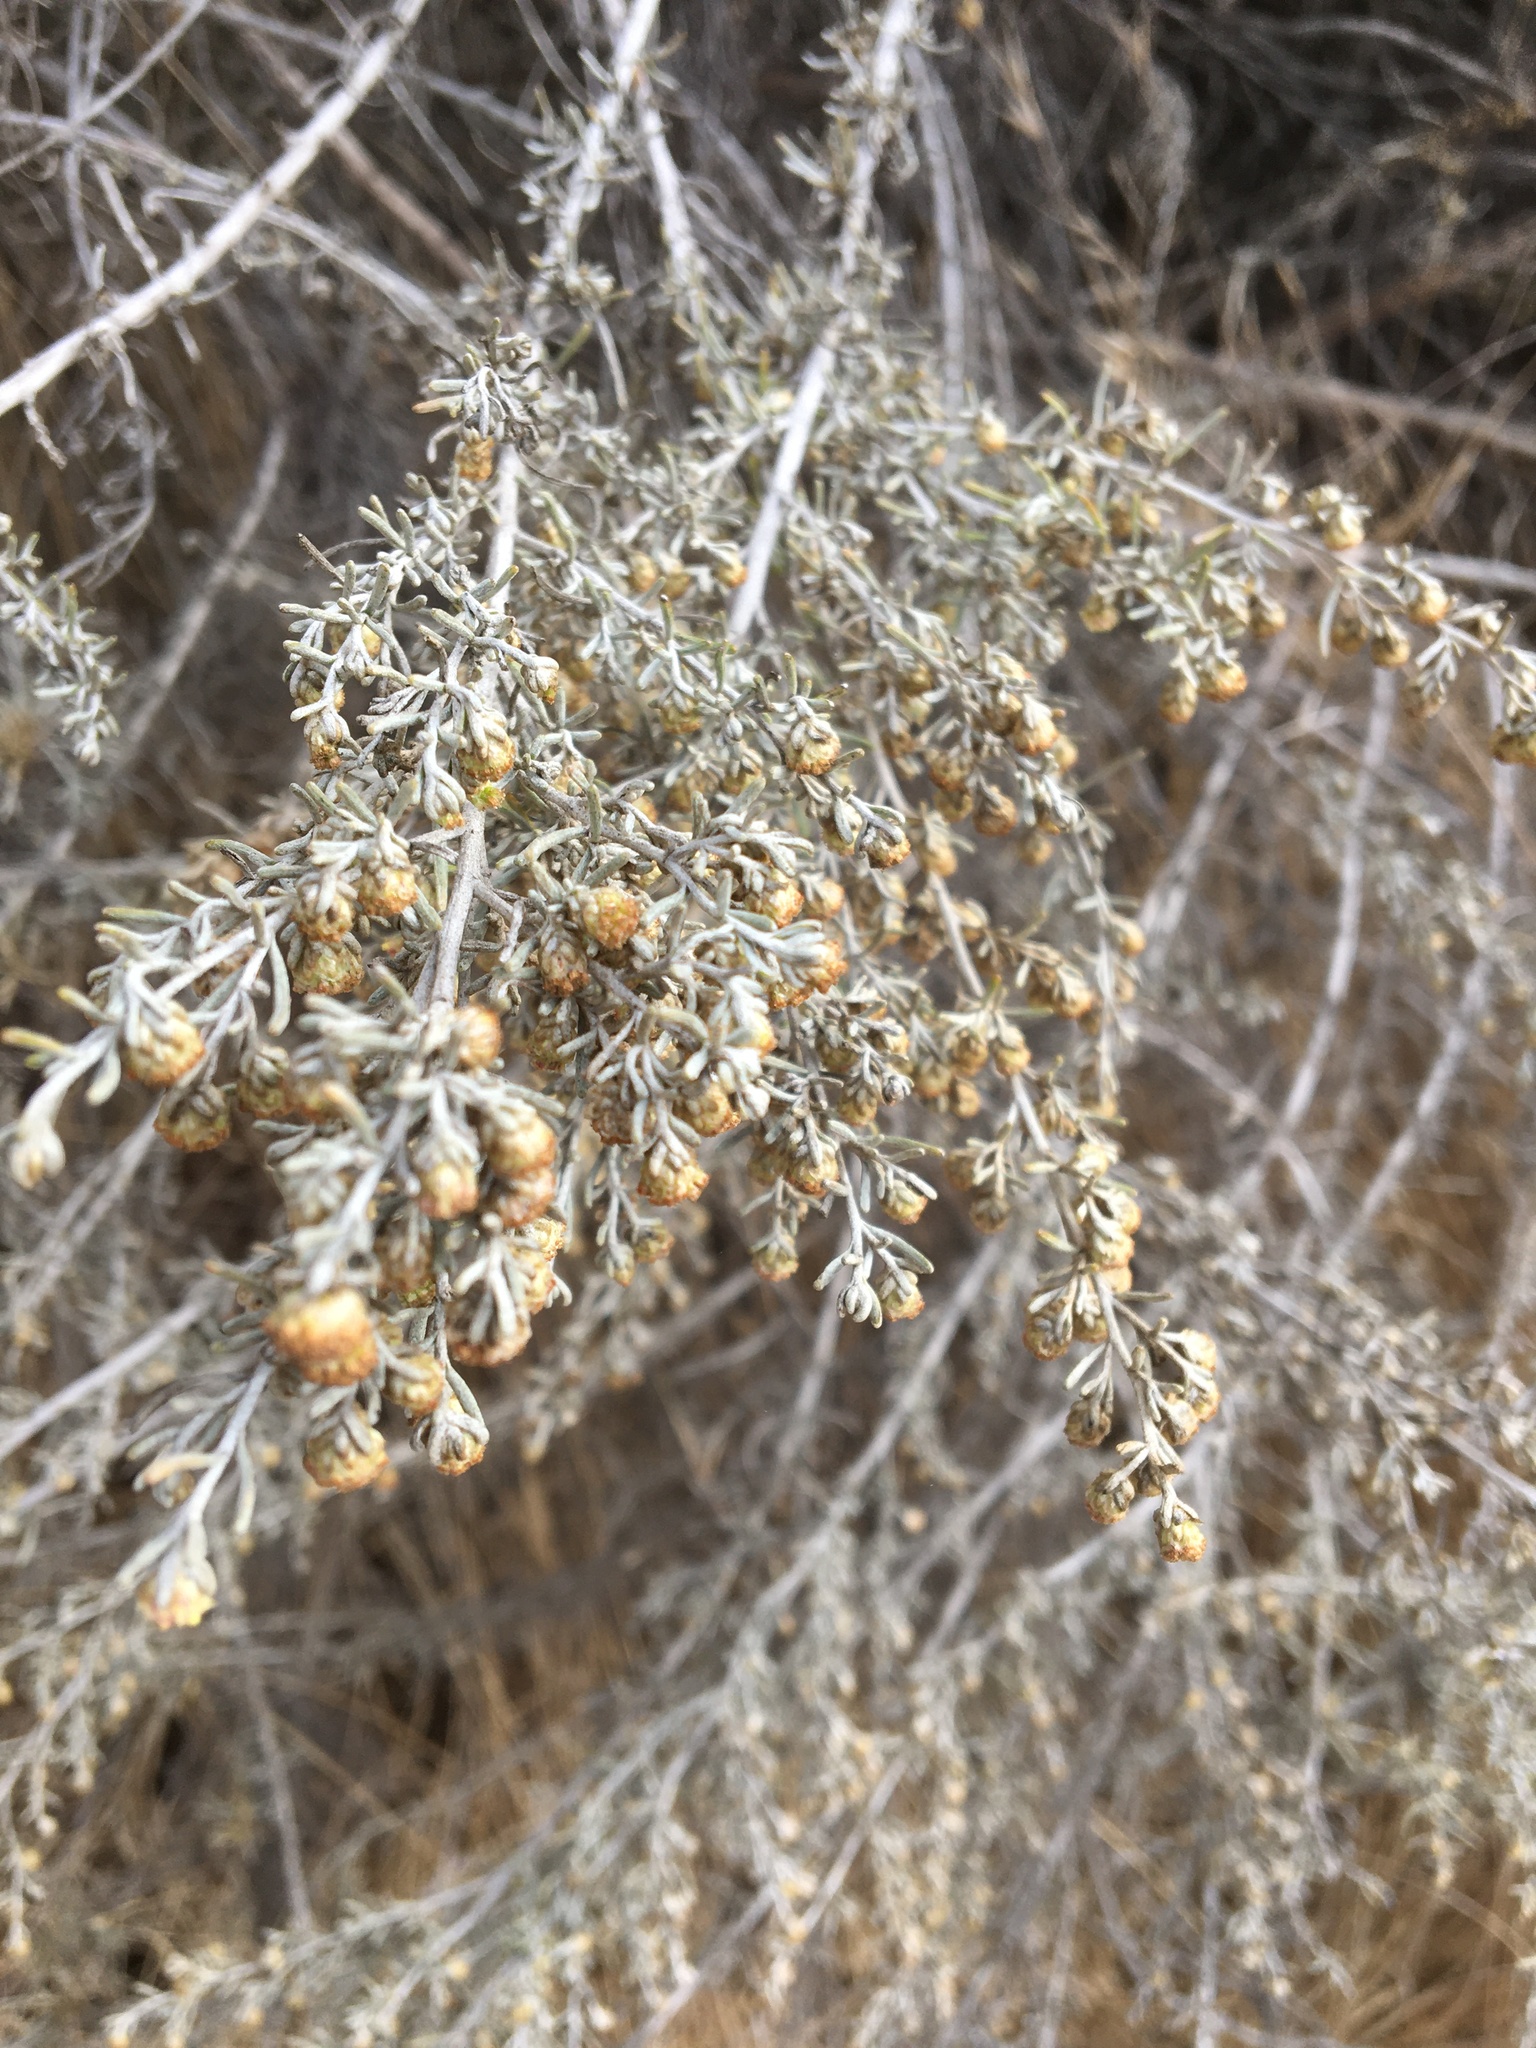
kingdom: Plantae
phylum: Tracheophyta
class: Magnoliopsida
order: Asterales
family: Asteraceae
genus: Artemisia
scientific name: Artemisia californica
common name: California sagebrush
